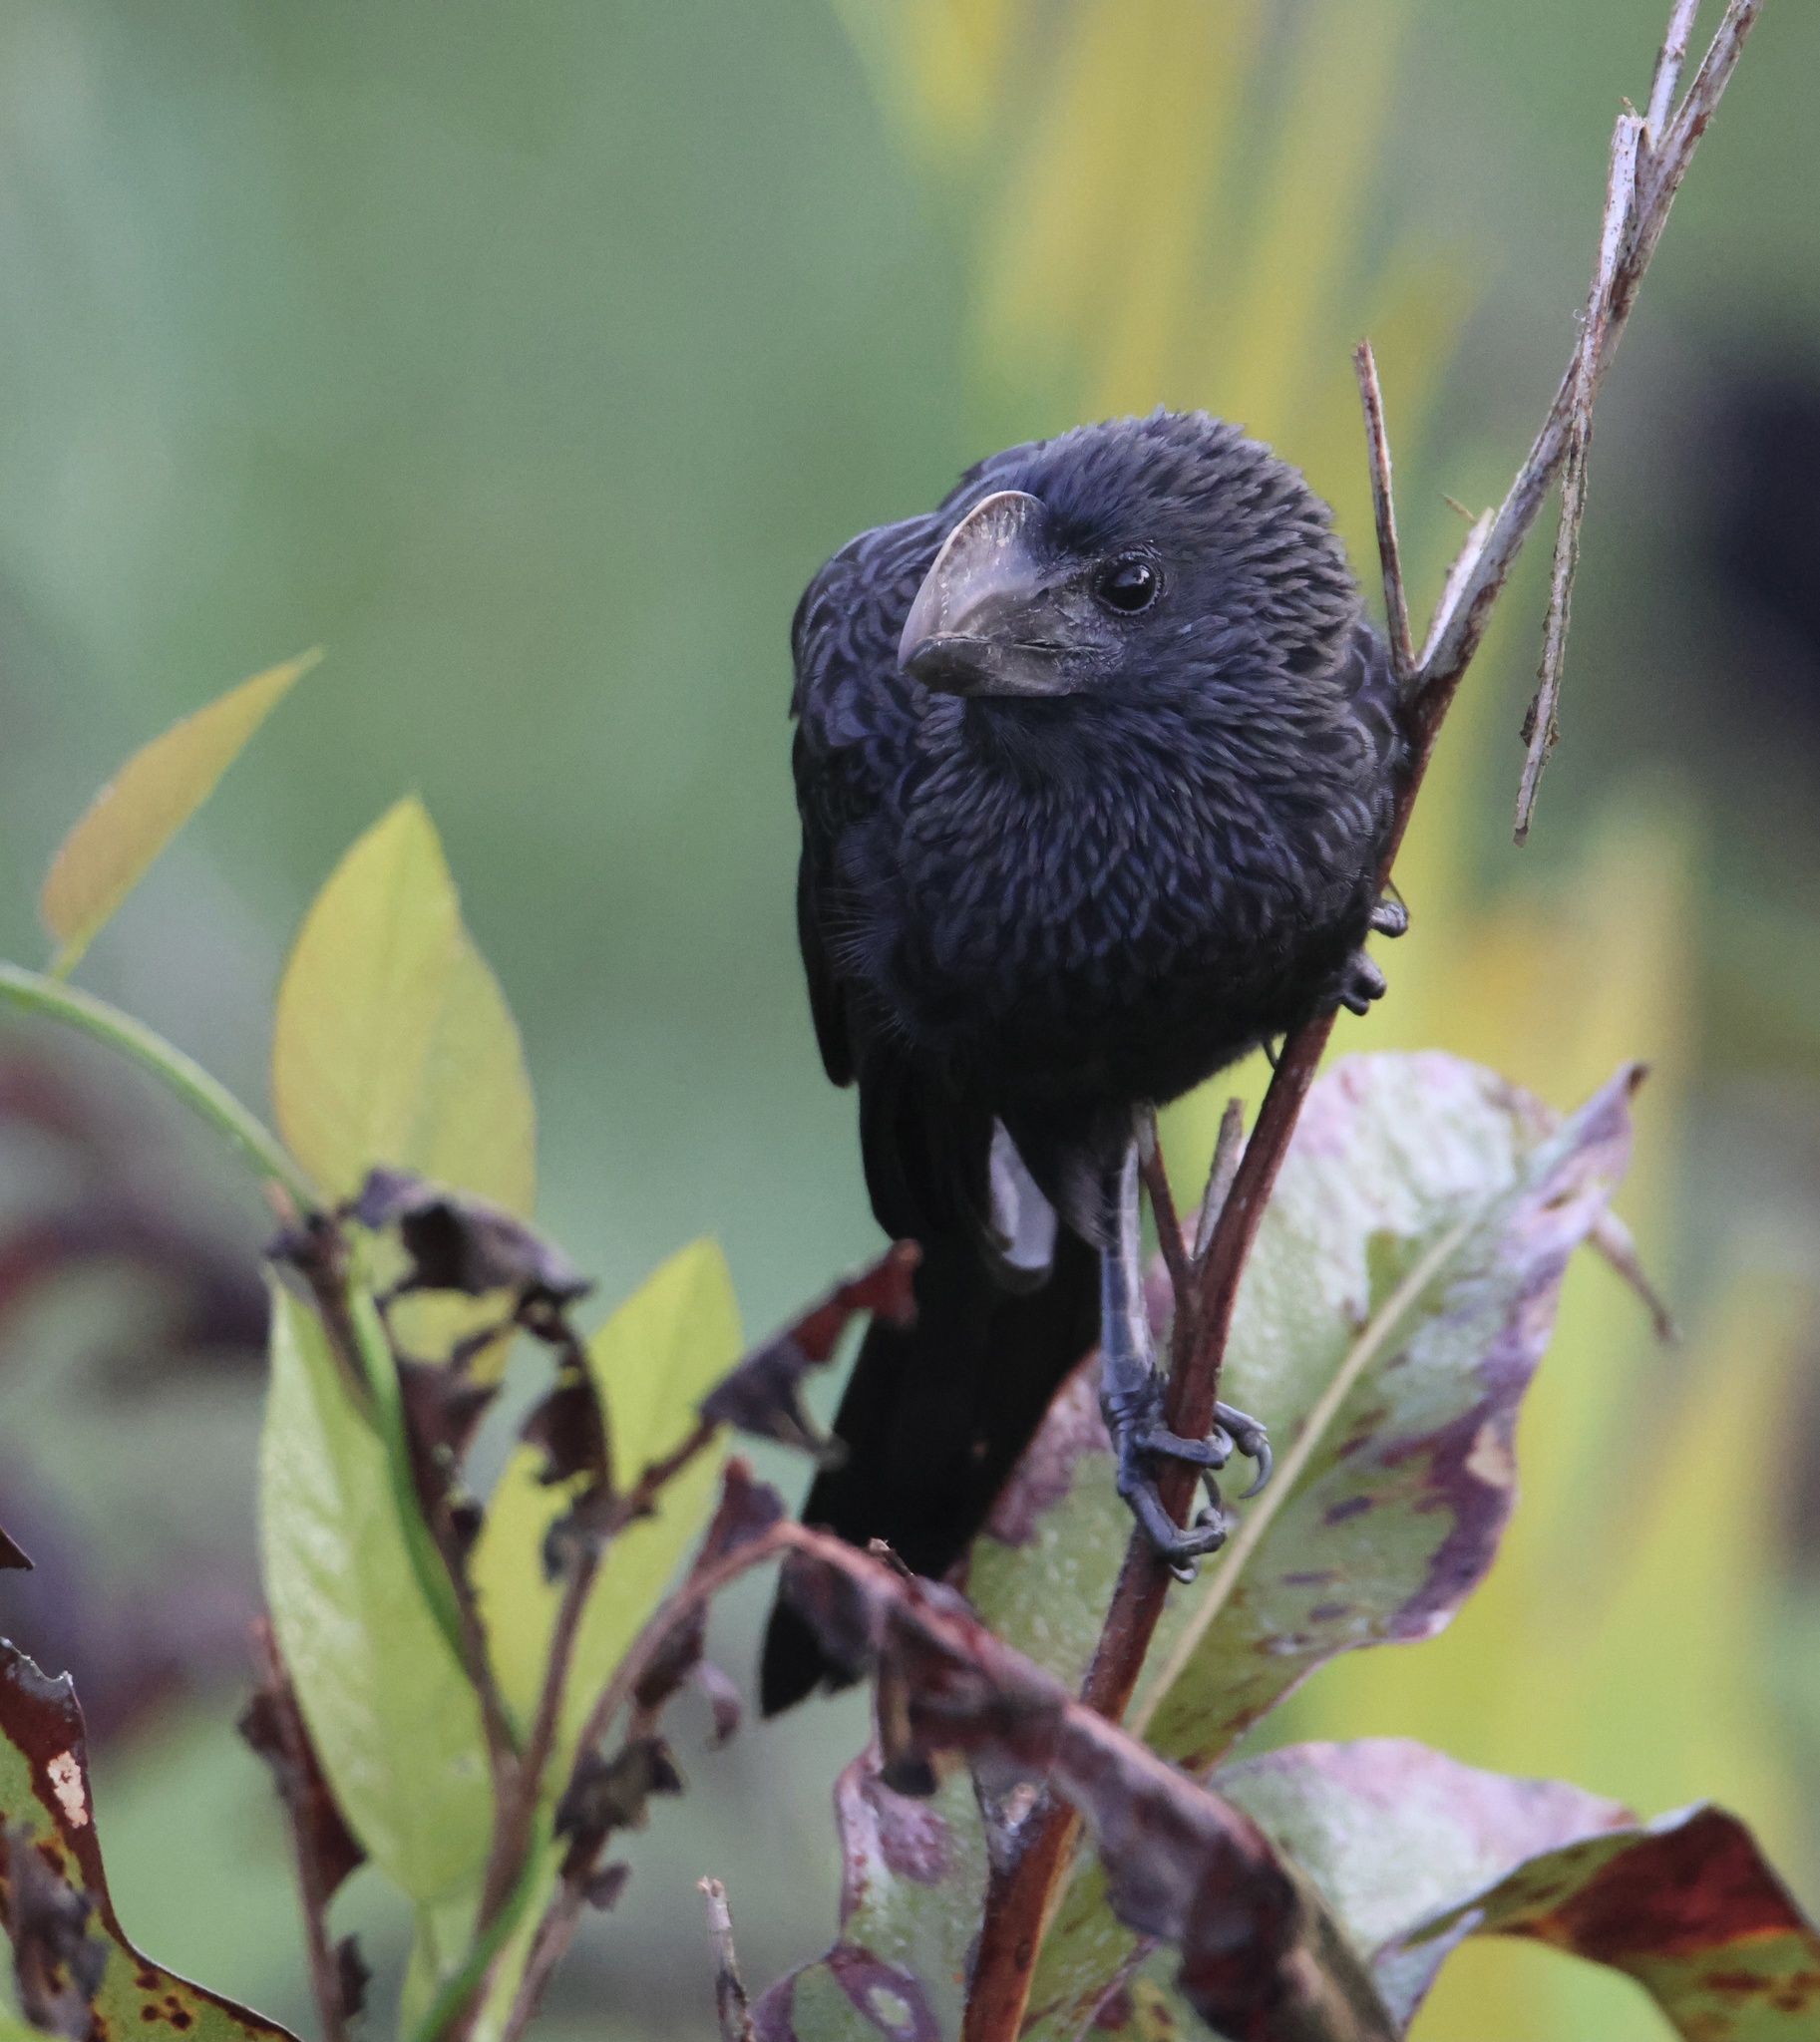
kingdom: Animalia
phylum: Chordata
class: Aves
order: Cuculiformes
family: Cuculidae
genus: Crotophaga
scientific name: Crotophaga ani
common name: Smooth-billed ani
